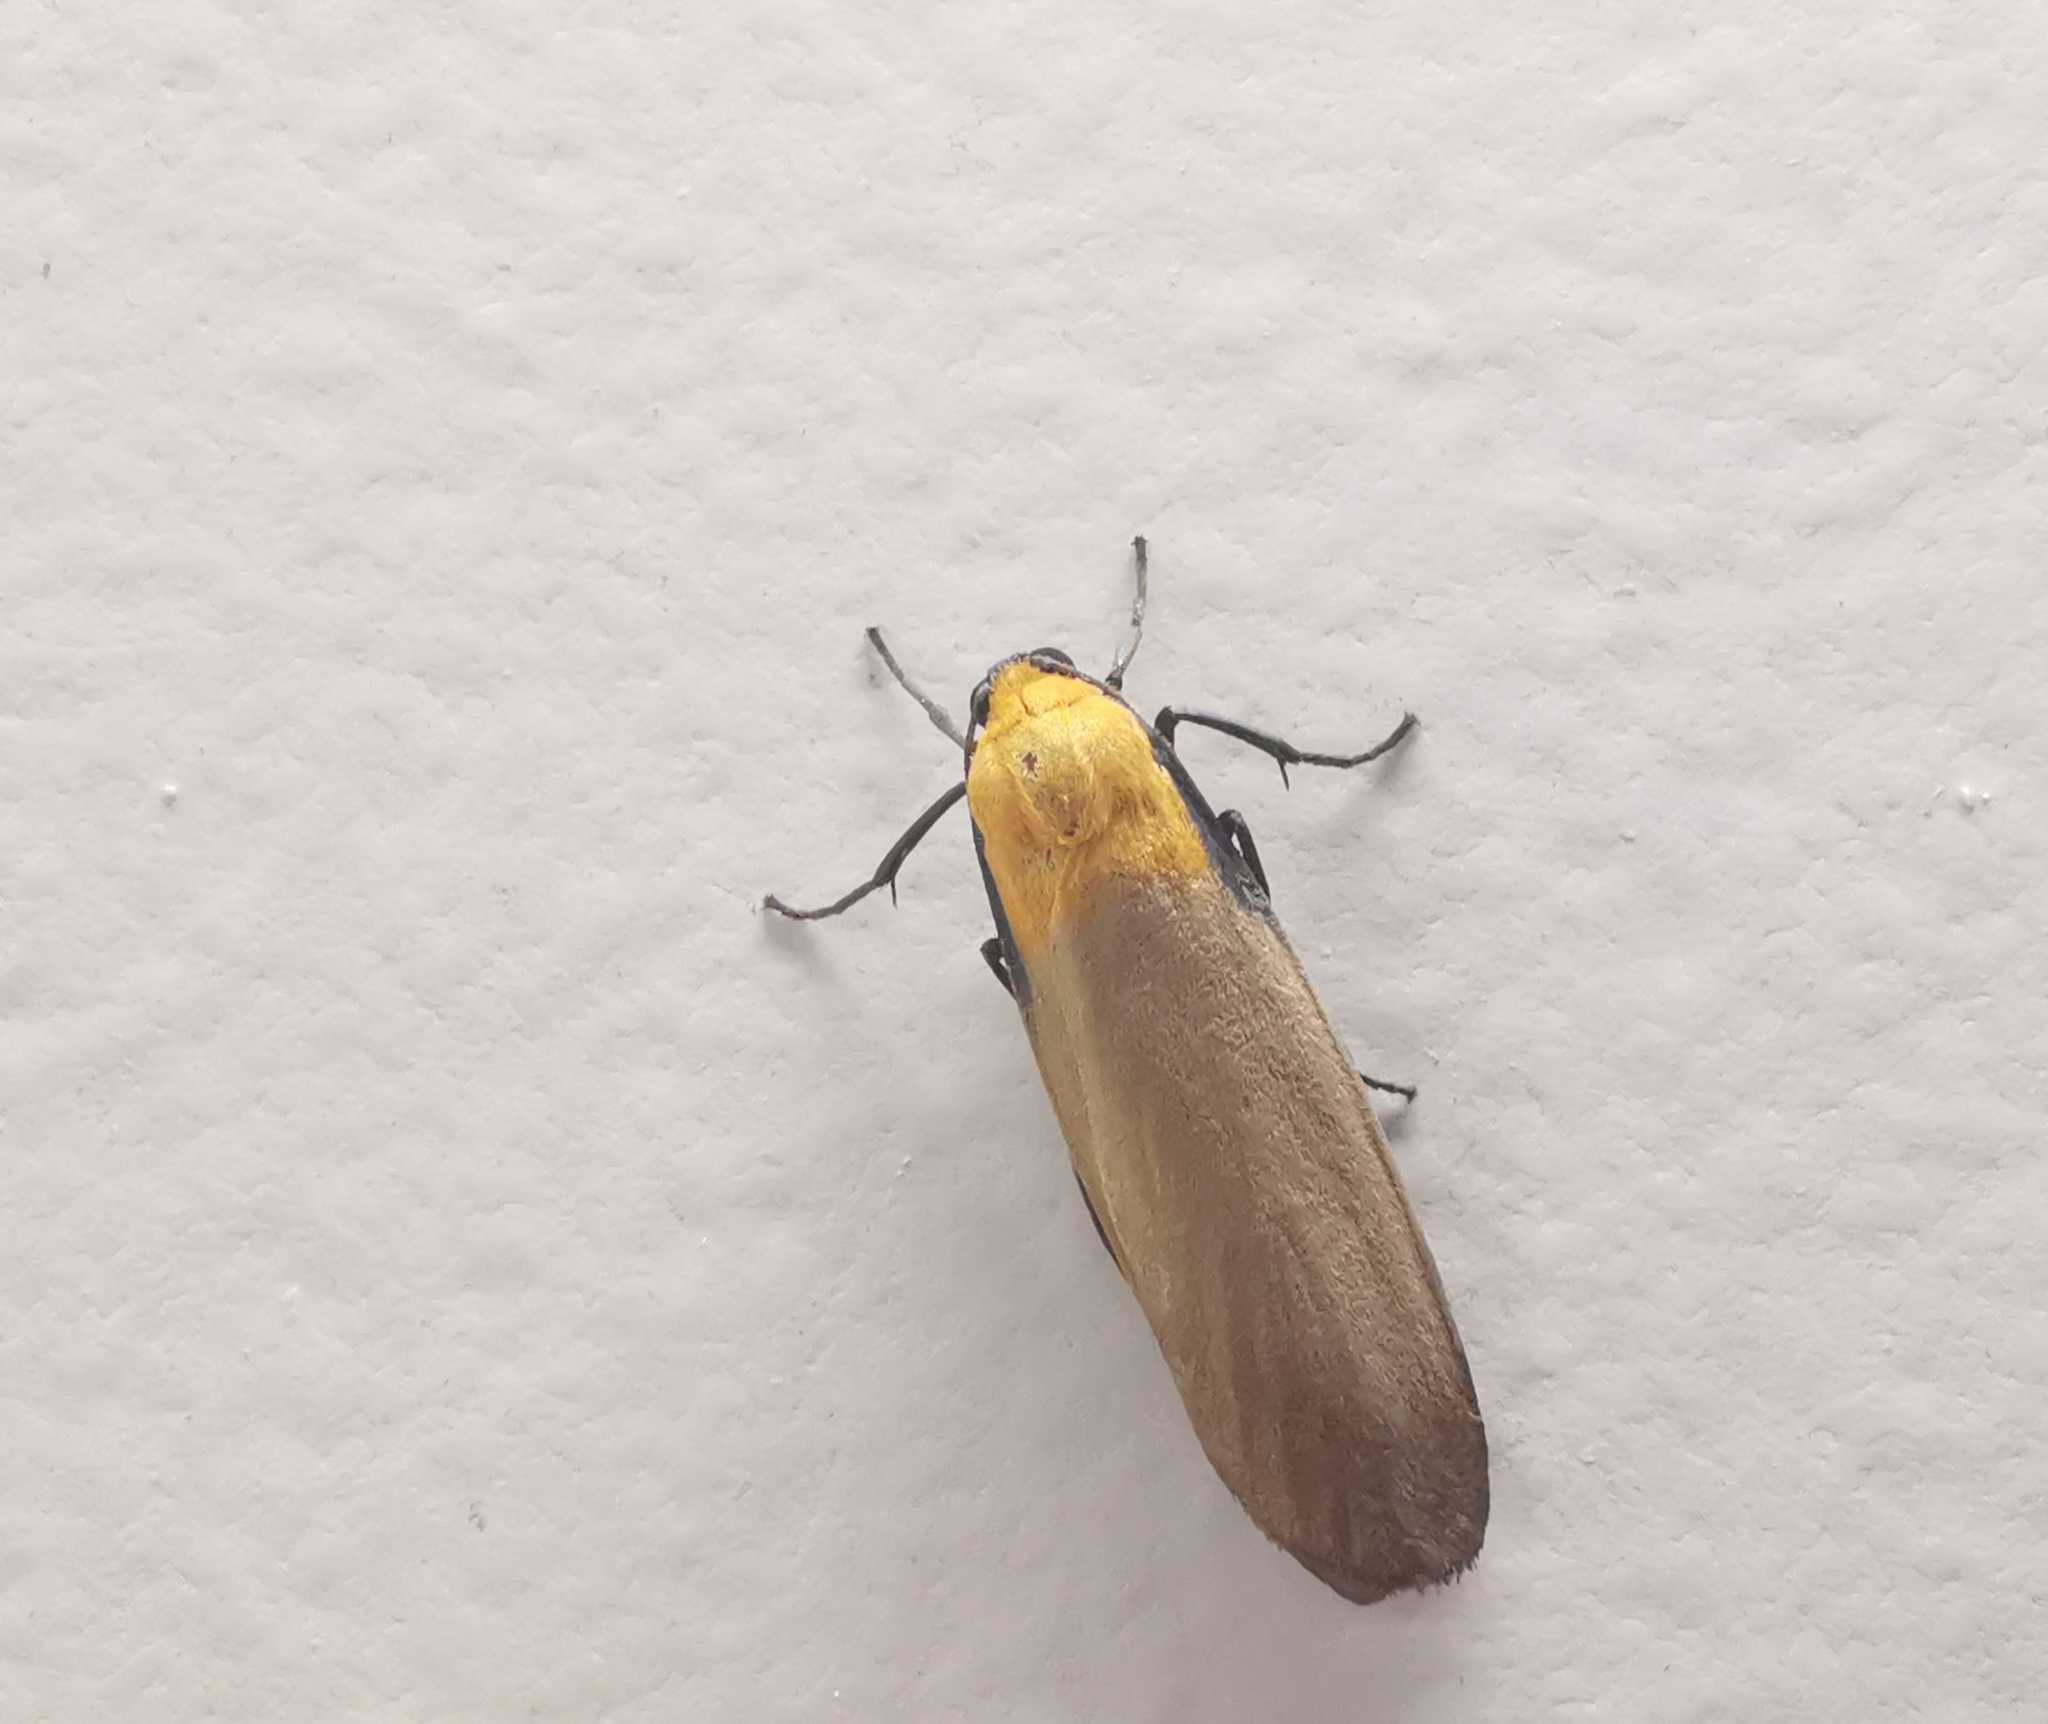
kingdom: Animalia
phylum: Arthropoda
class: Insecta
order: Lepidoptera
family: Erebidae
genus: Lithosia
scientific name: Lithosia quadra
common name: Four-spotted footman
